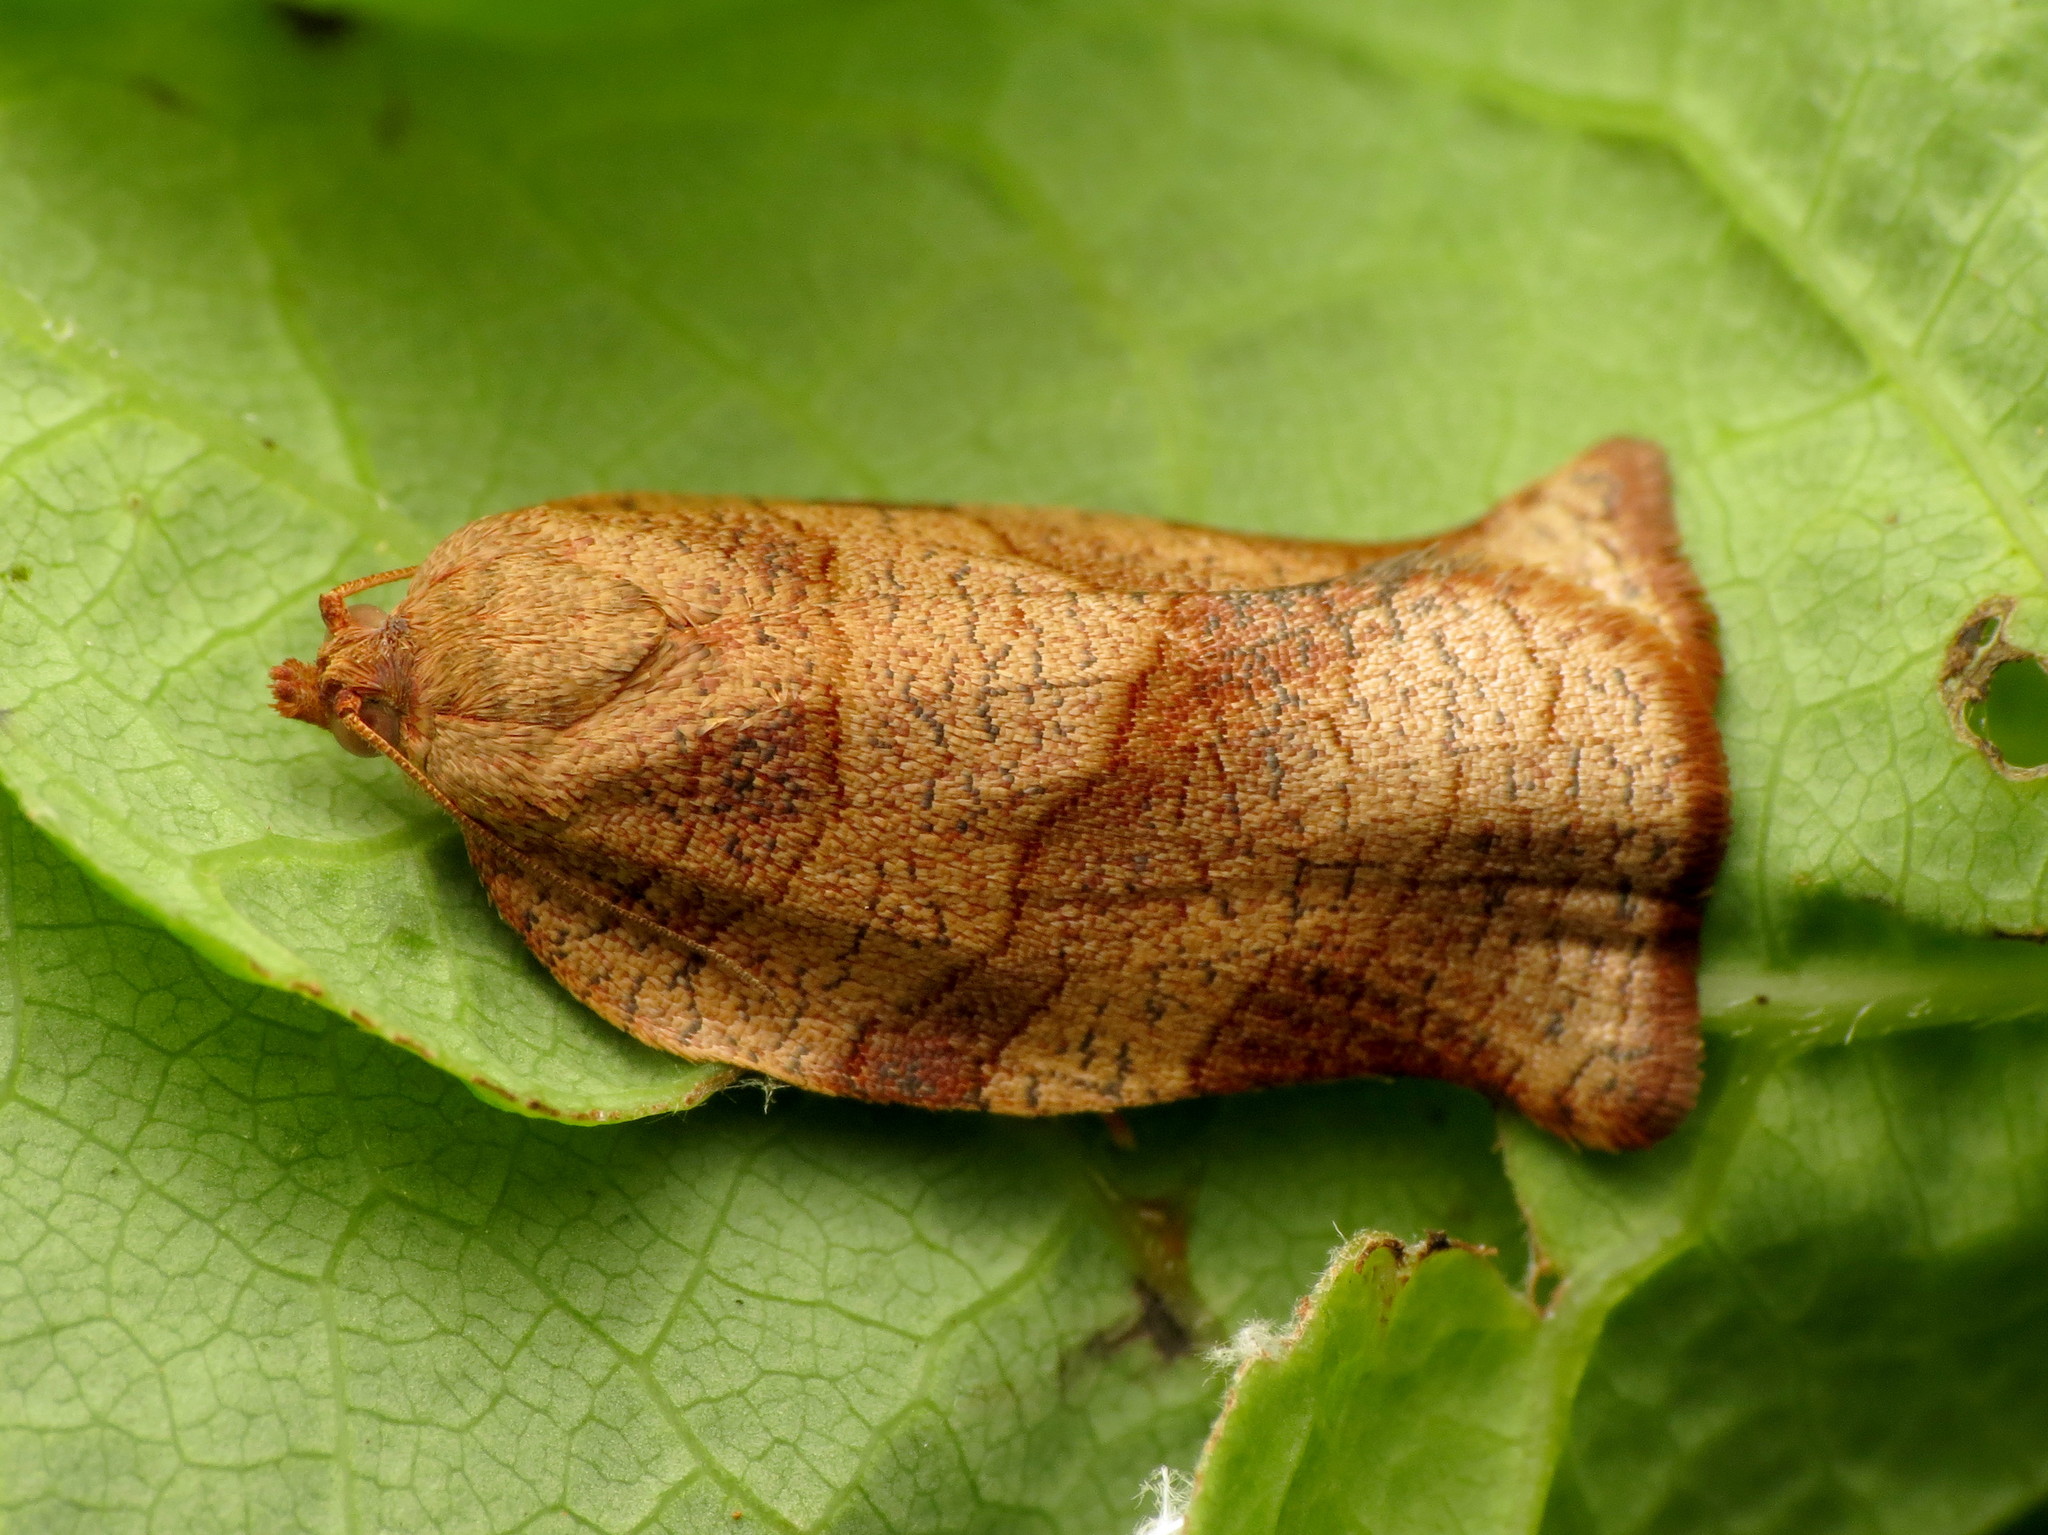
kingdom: Animalia
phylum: Arthropoda
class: Insecta
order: Lepidoptera
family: Tortricidae
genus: Choristoneura
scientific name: Choristoneura rosaceana
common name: Oblique-banded leafroller moth
